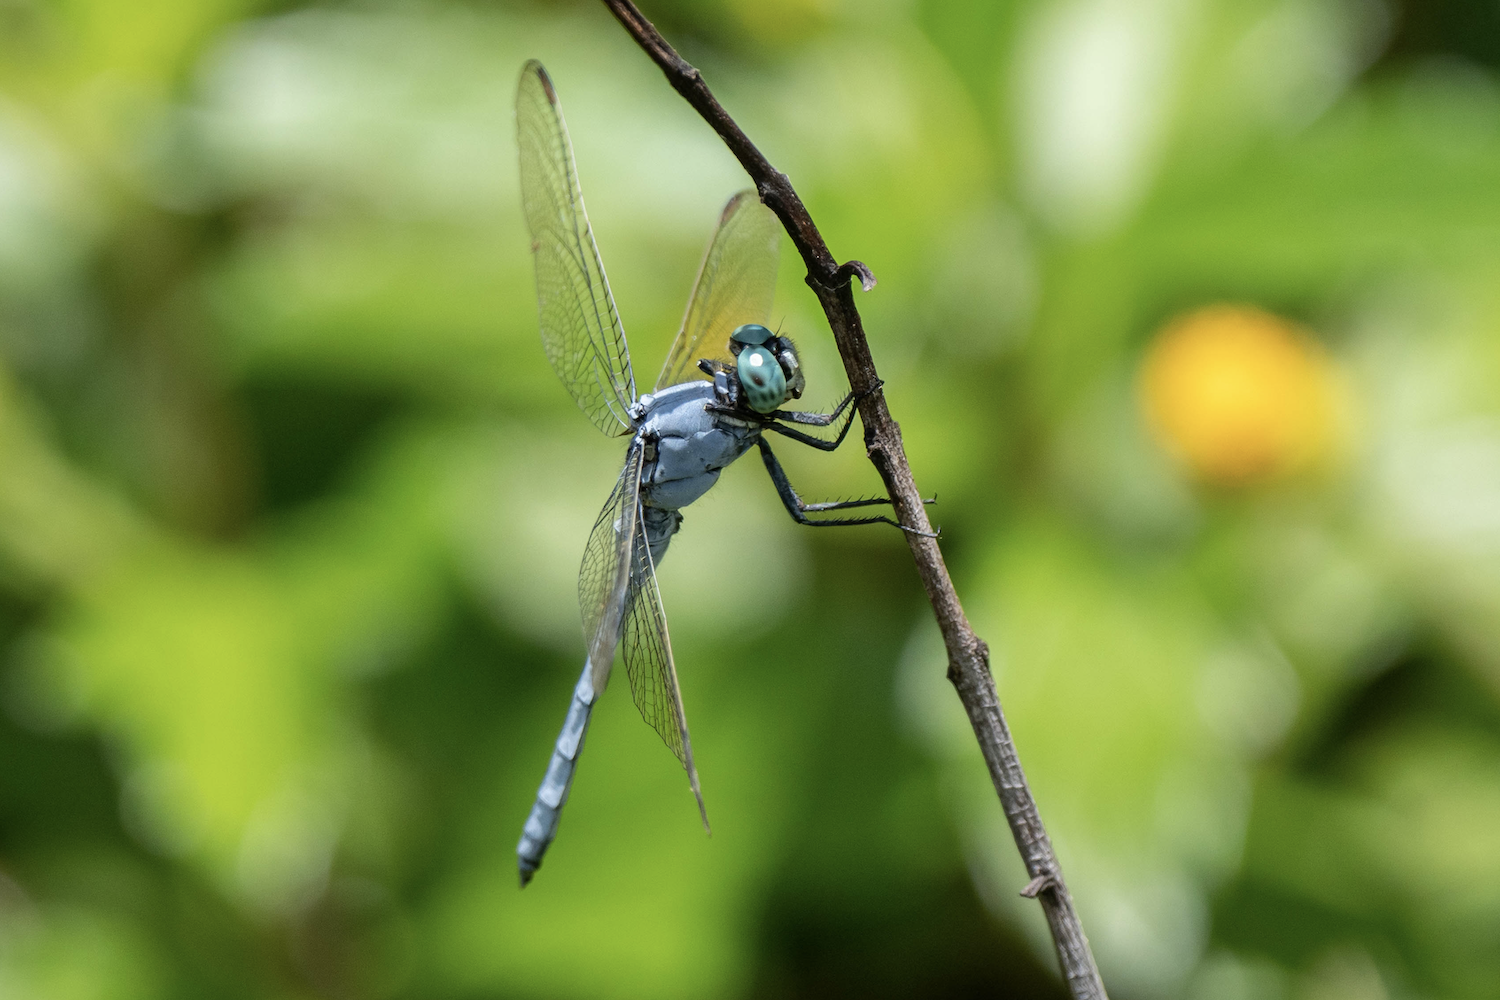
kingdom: Animalia
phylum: Arthropoda
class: Insecta
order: Odonata
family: Libellulidae
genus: Orthetrum
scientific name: Orthetrum luzonicum
